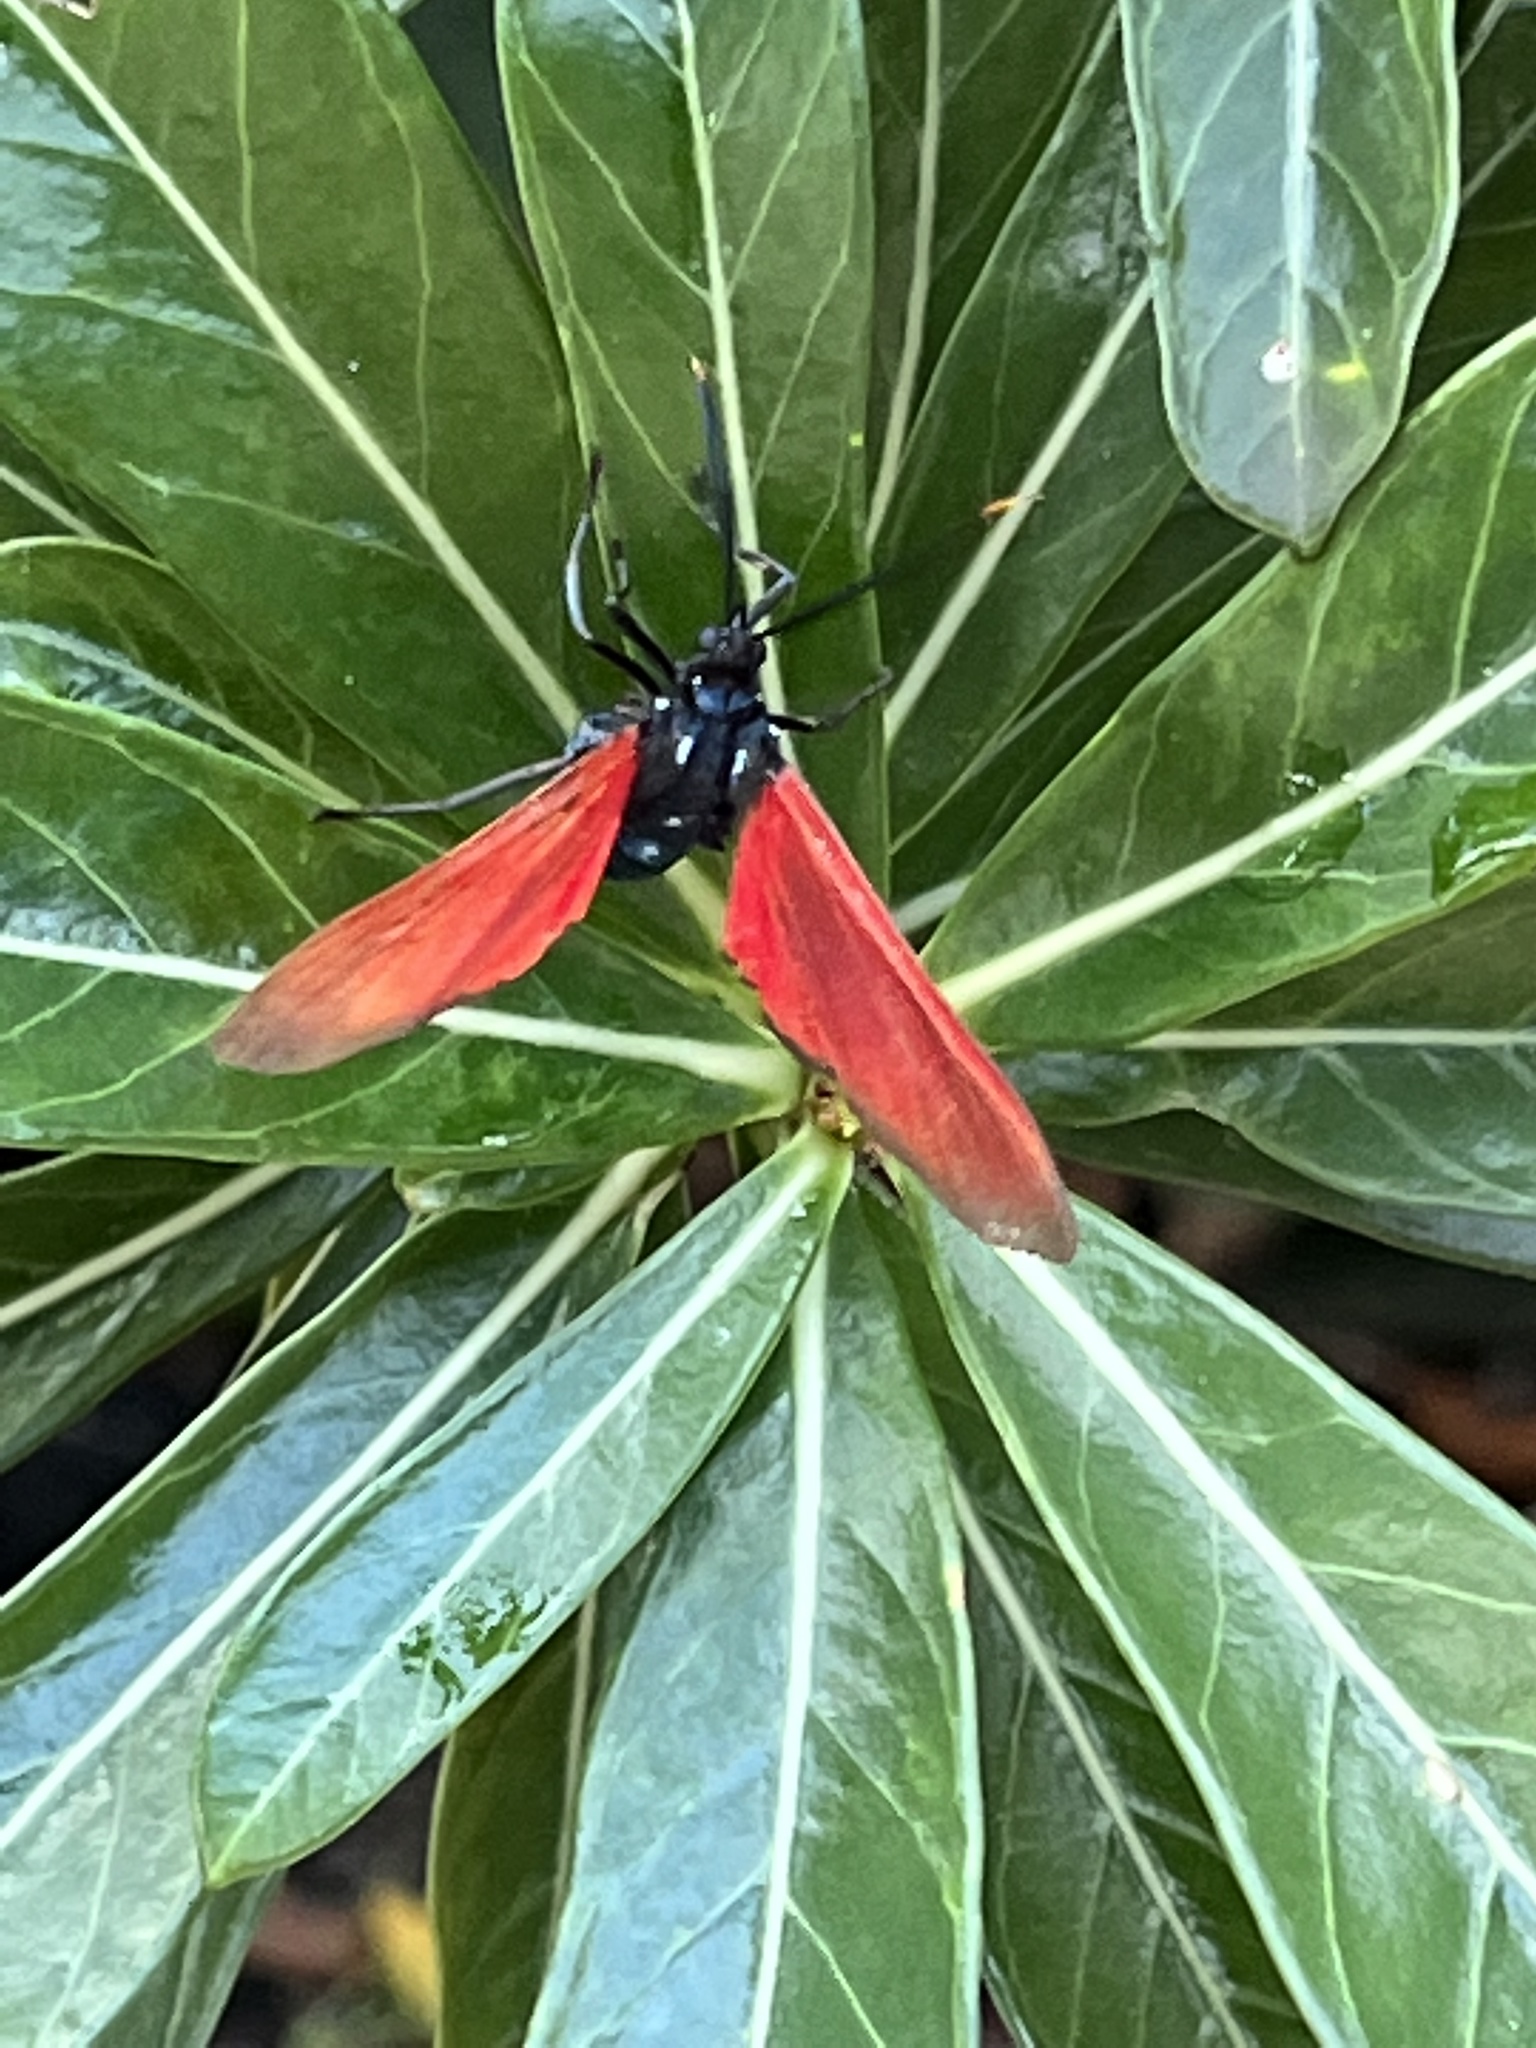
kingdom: Animalia
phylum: Arthropoda
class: Insecta
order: Lepidoptera
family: Erebidae
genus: Empyreuma
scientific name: Empyreuma pugione
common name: Spotted oleander caterpillar moth
